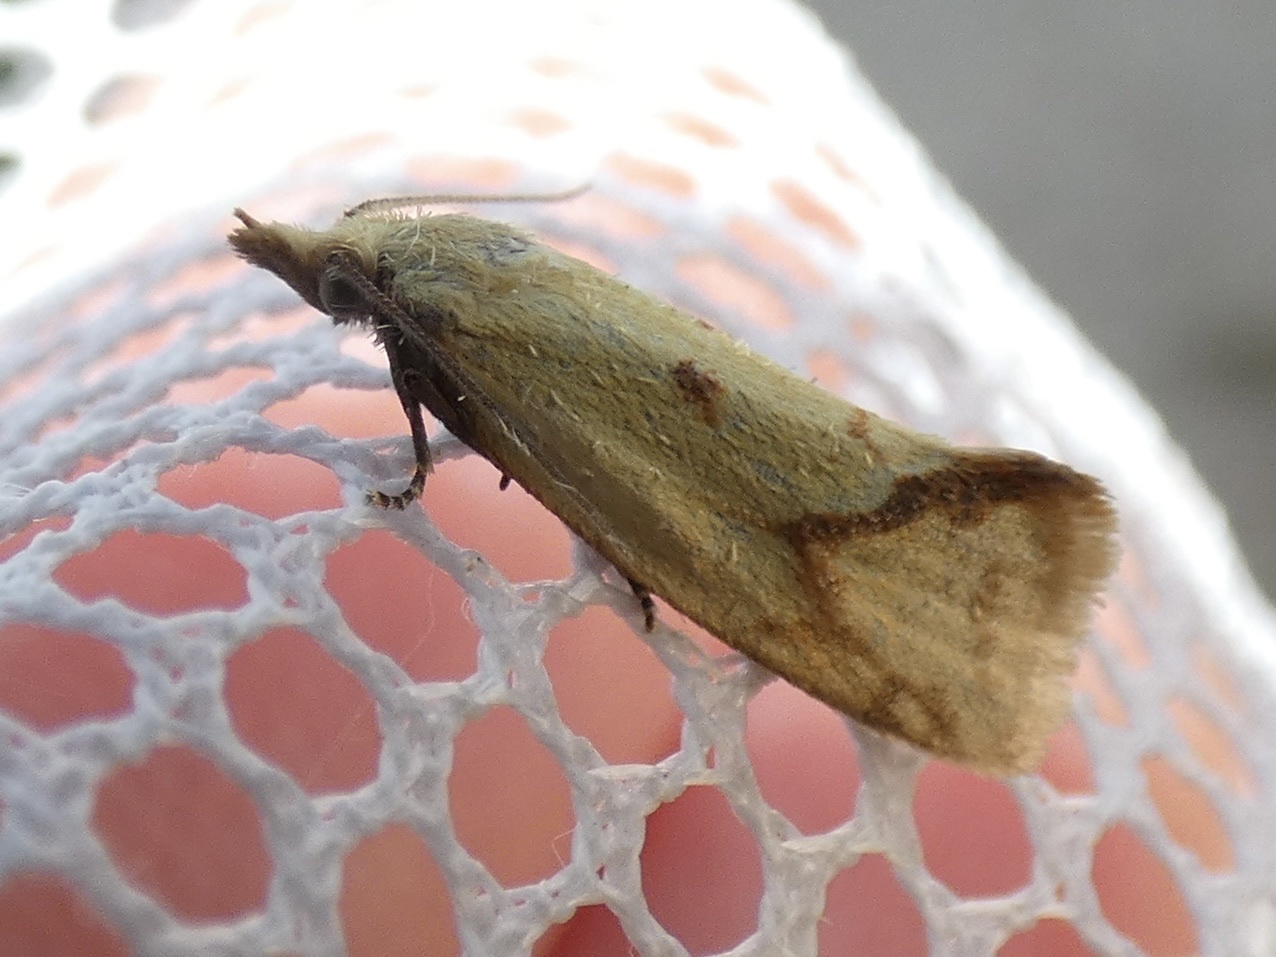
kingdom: Animalia
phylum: Arthropoda
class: Insecta
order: Lepidoptera
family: Tortricidae
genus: Agapeta
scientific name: Agapeta hamana
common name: Common yellow conch
